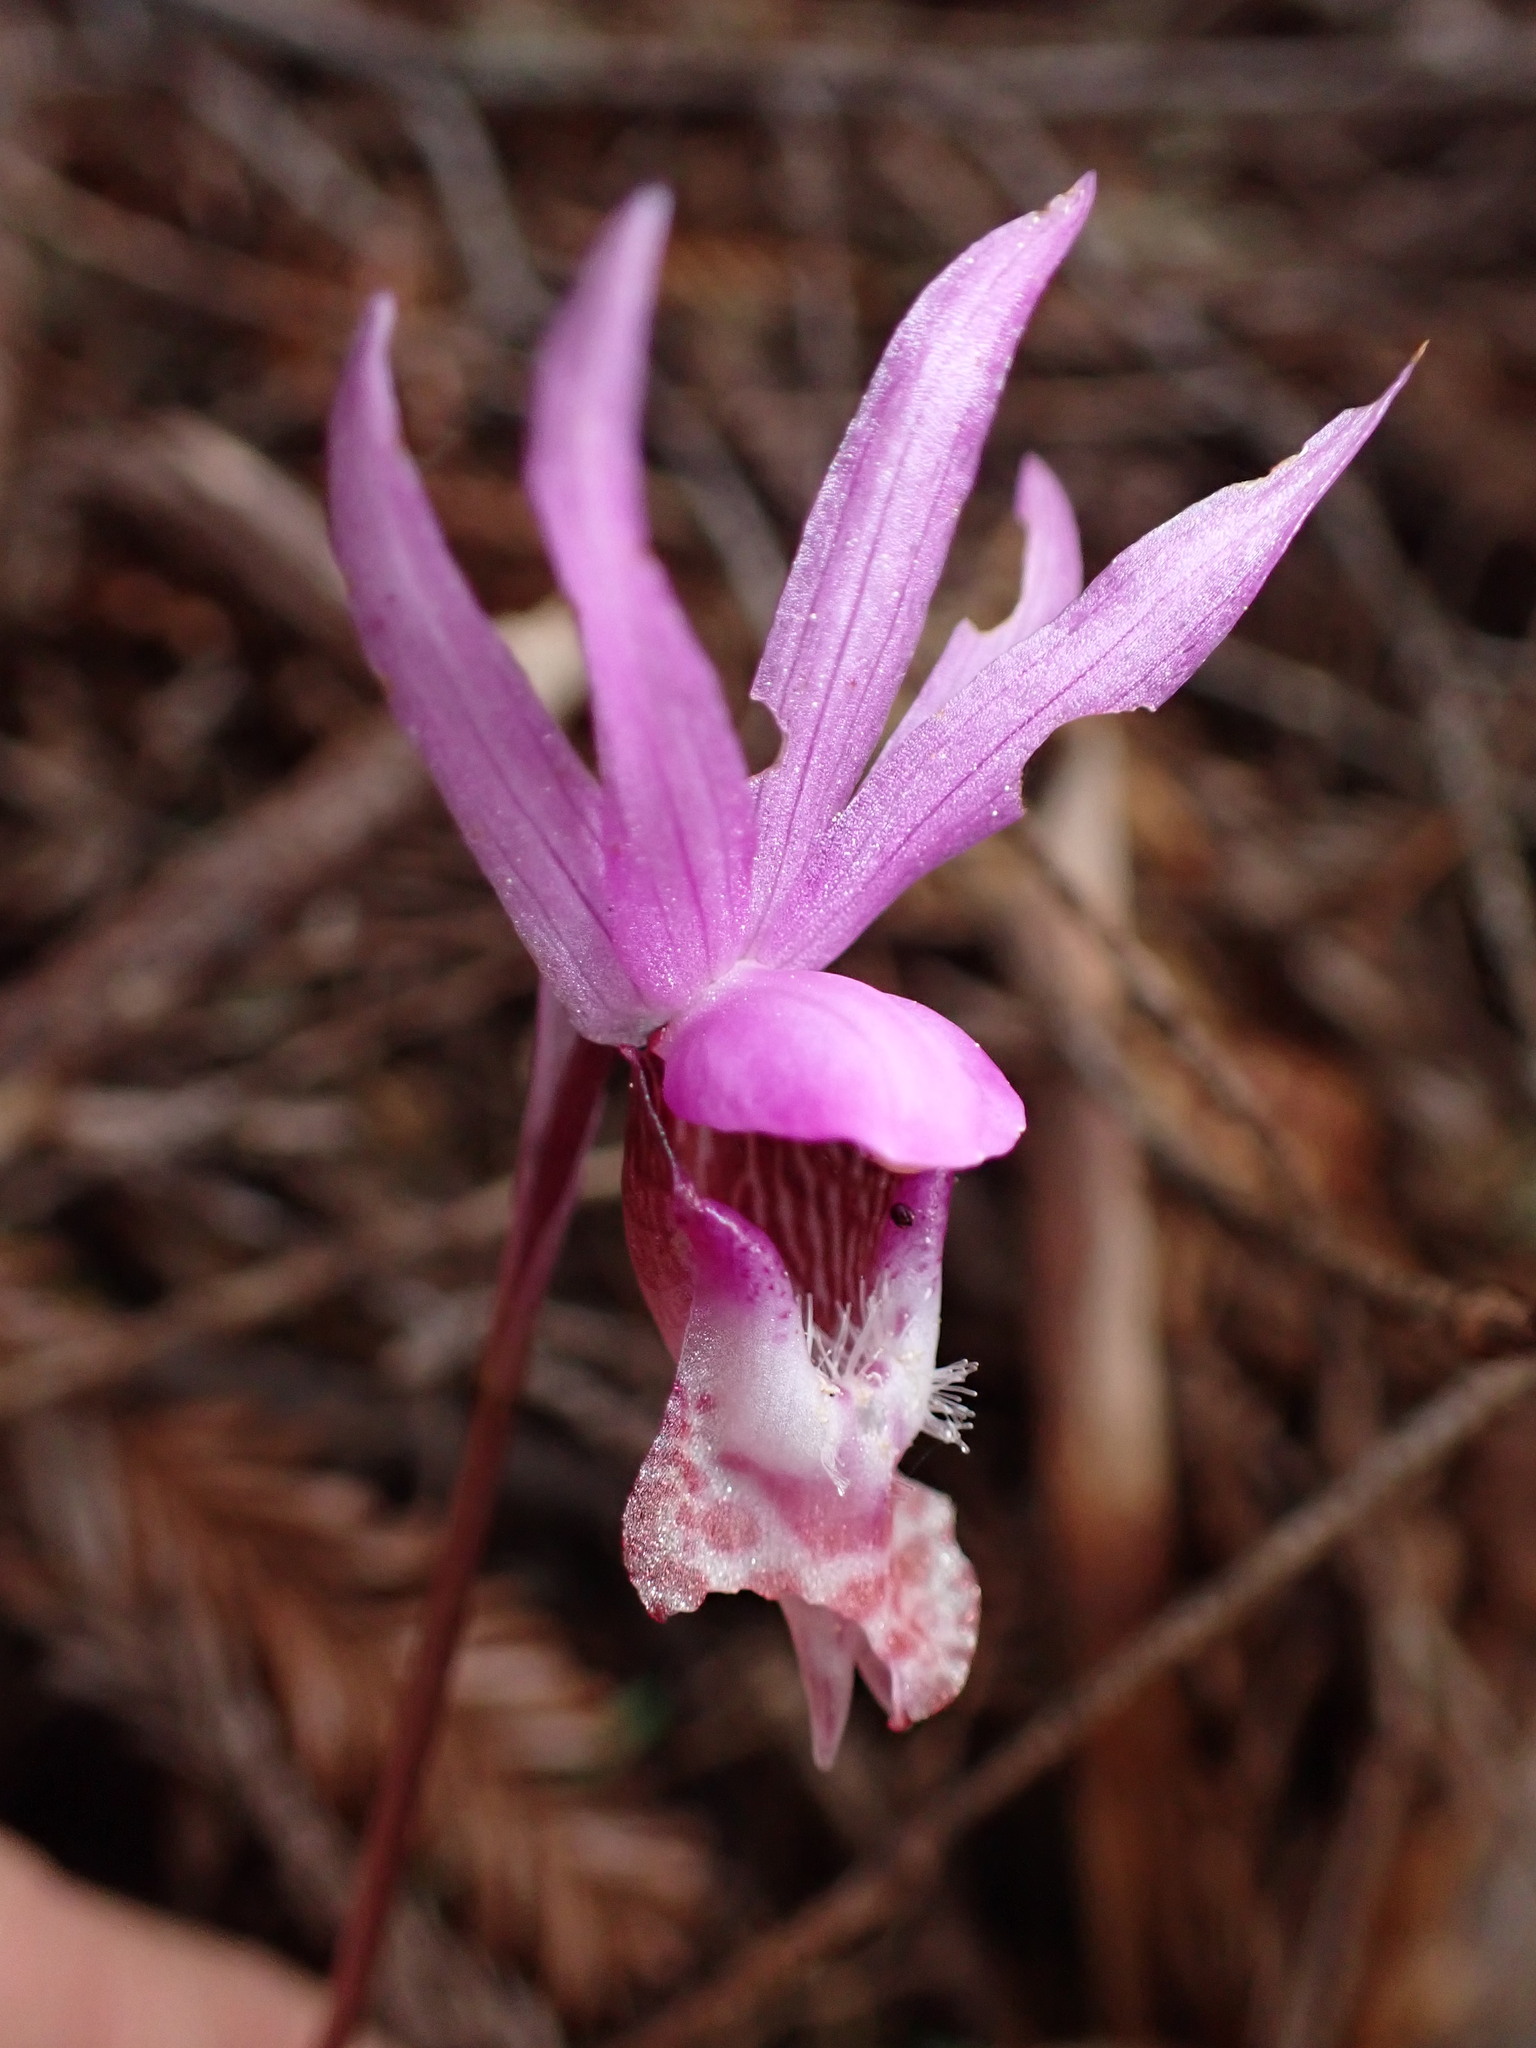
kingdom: Plantae
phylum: Tracheophyta
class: Liliopsida
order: Asparagales
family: Orchidaceae
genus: Calypso
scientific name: Calypso bulbosa
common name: Calypso
